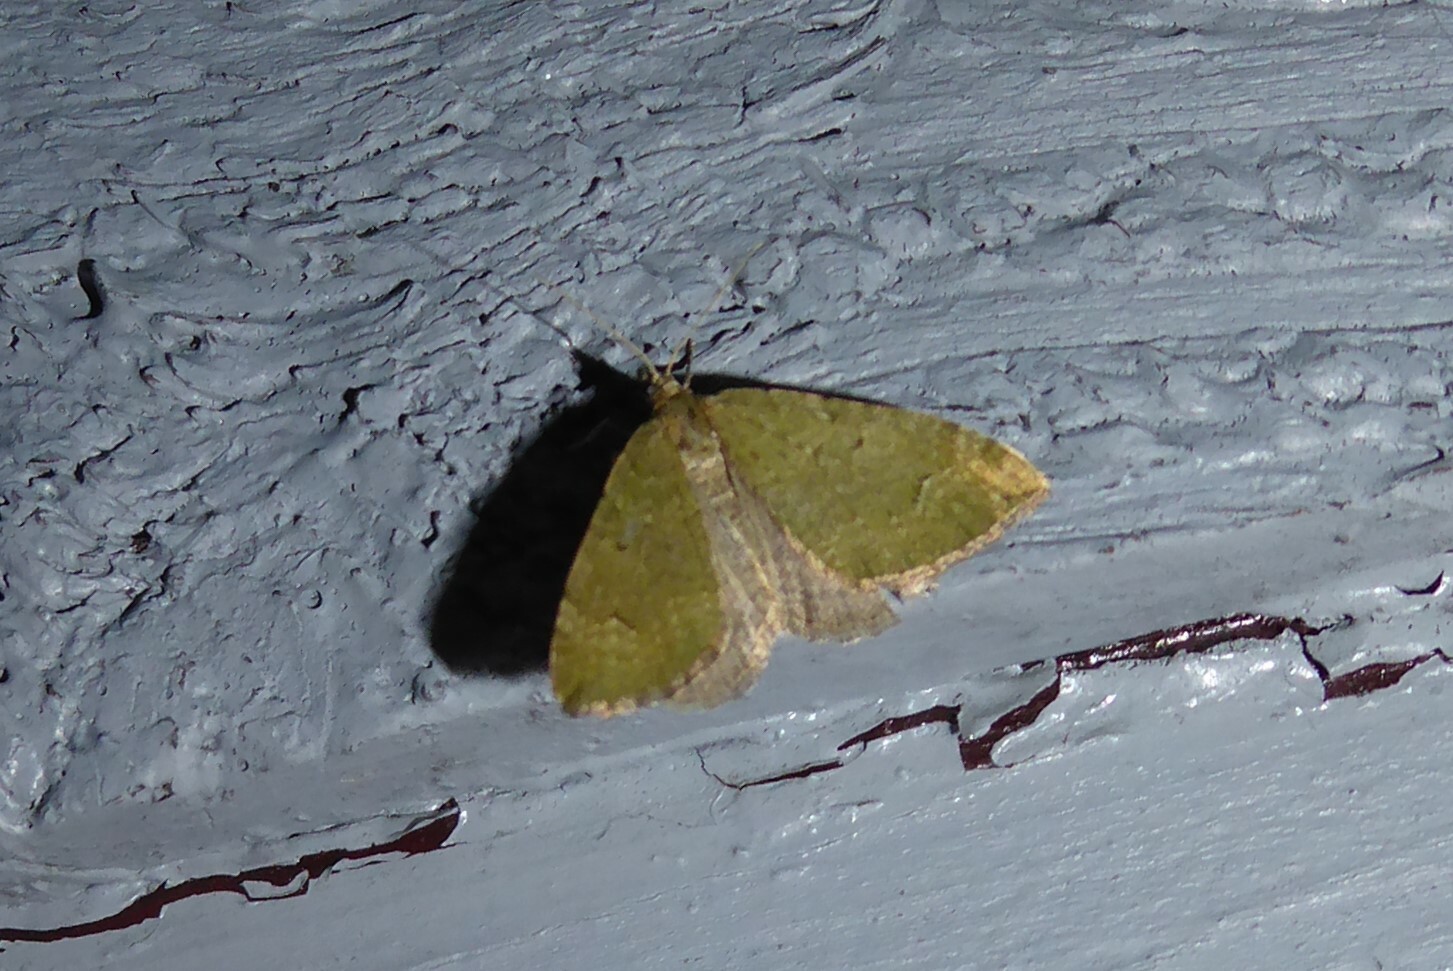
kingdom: Animalia
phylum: Arthropoda
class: Insecta
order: Lepidoptera
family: Geometridae
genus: Epyaxa
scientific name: Epyaxa rosearia
